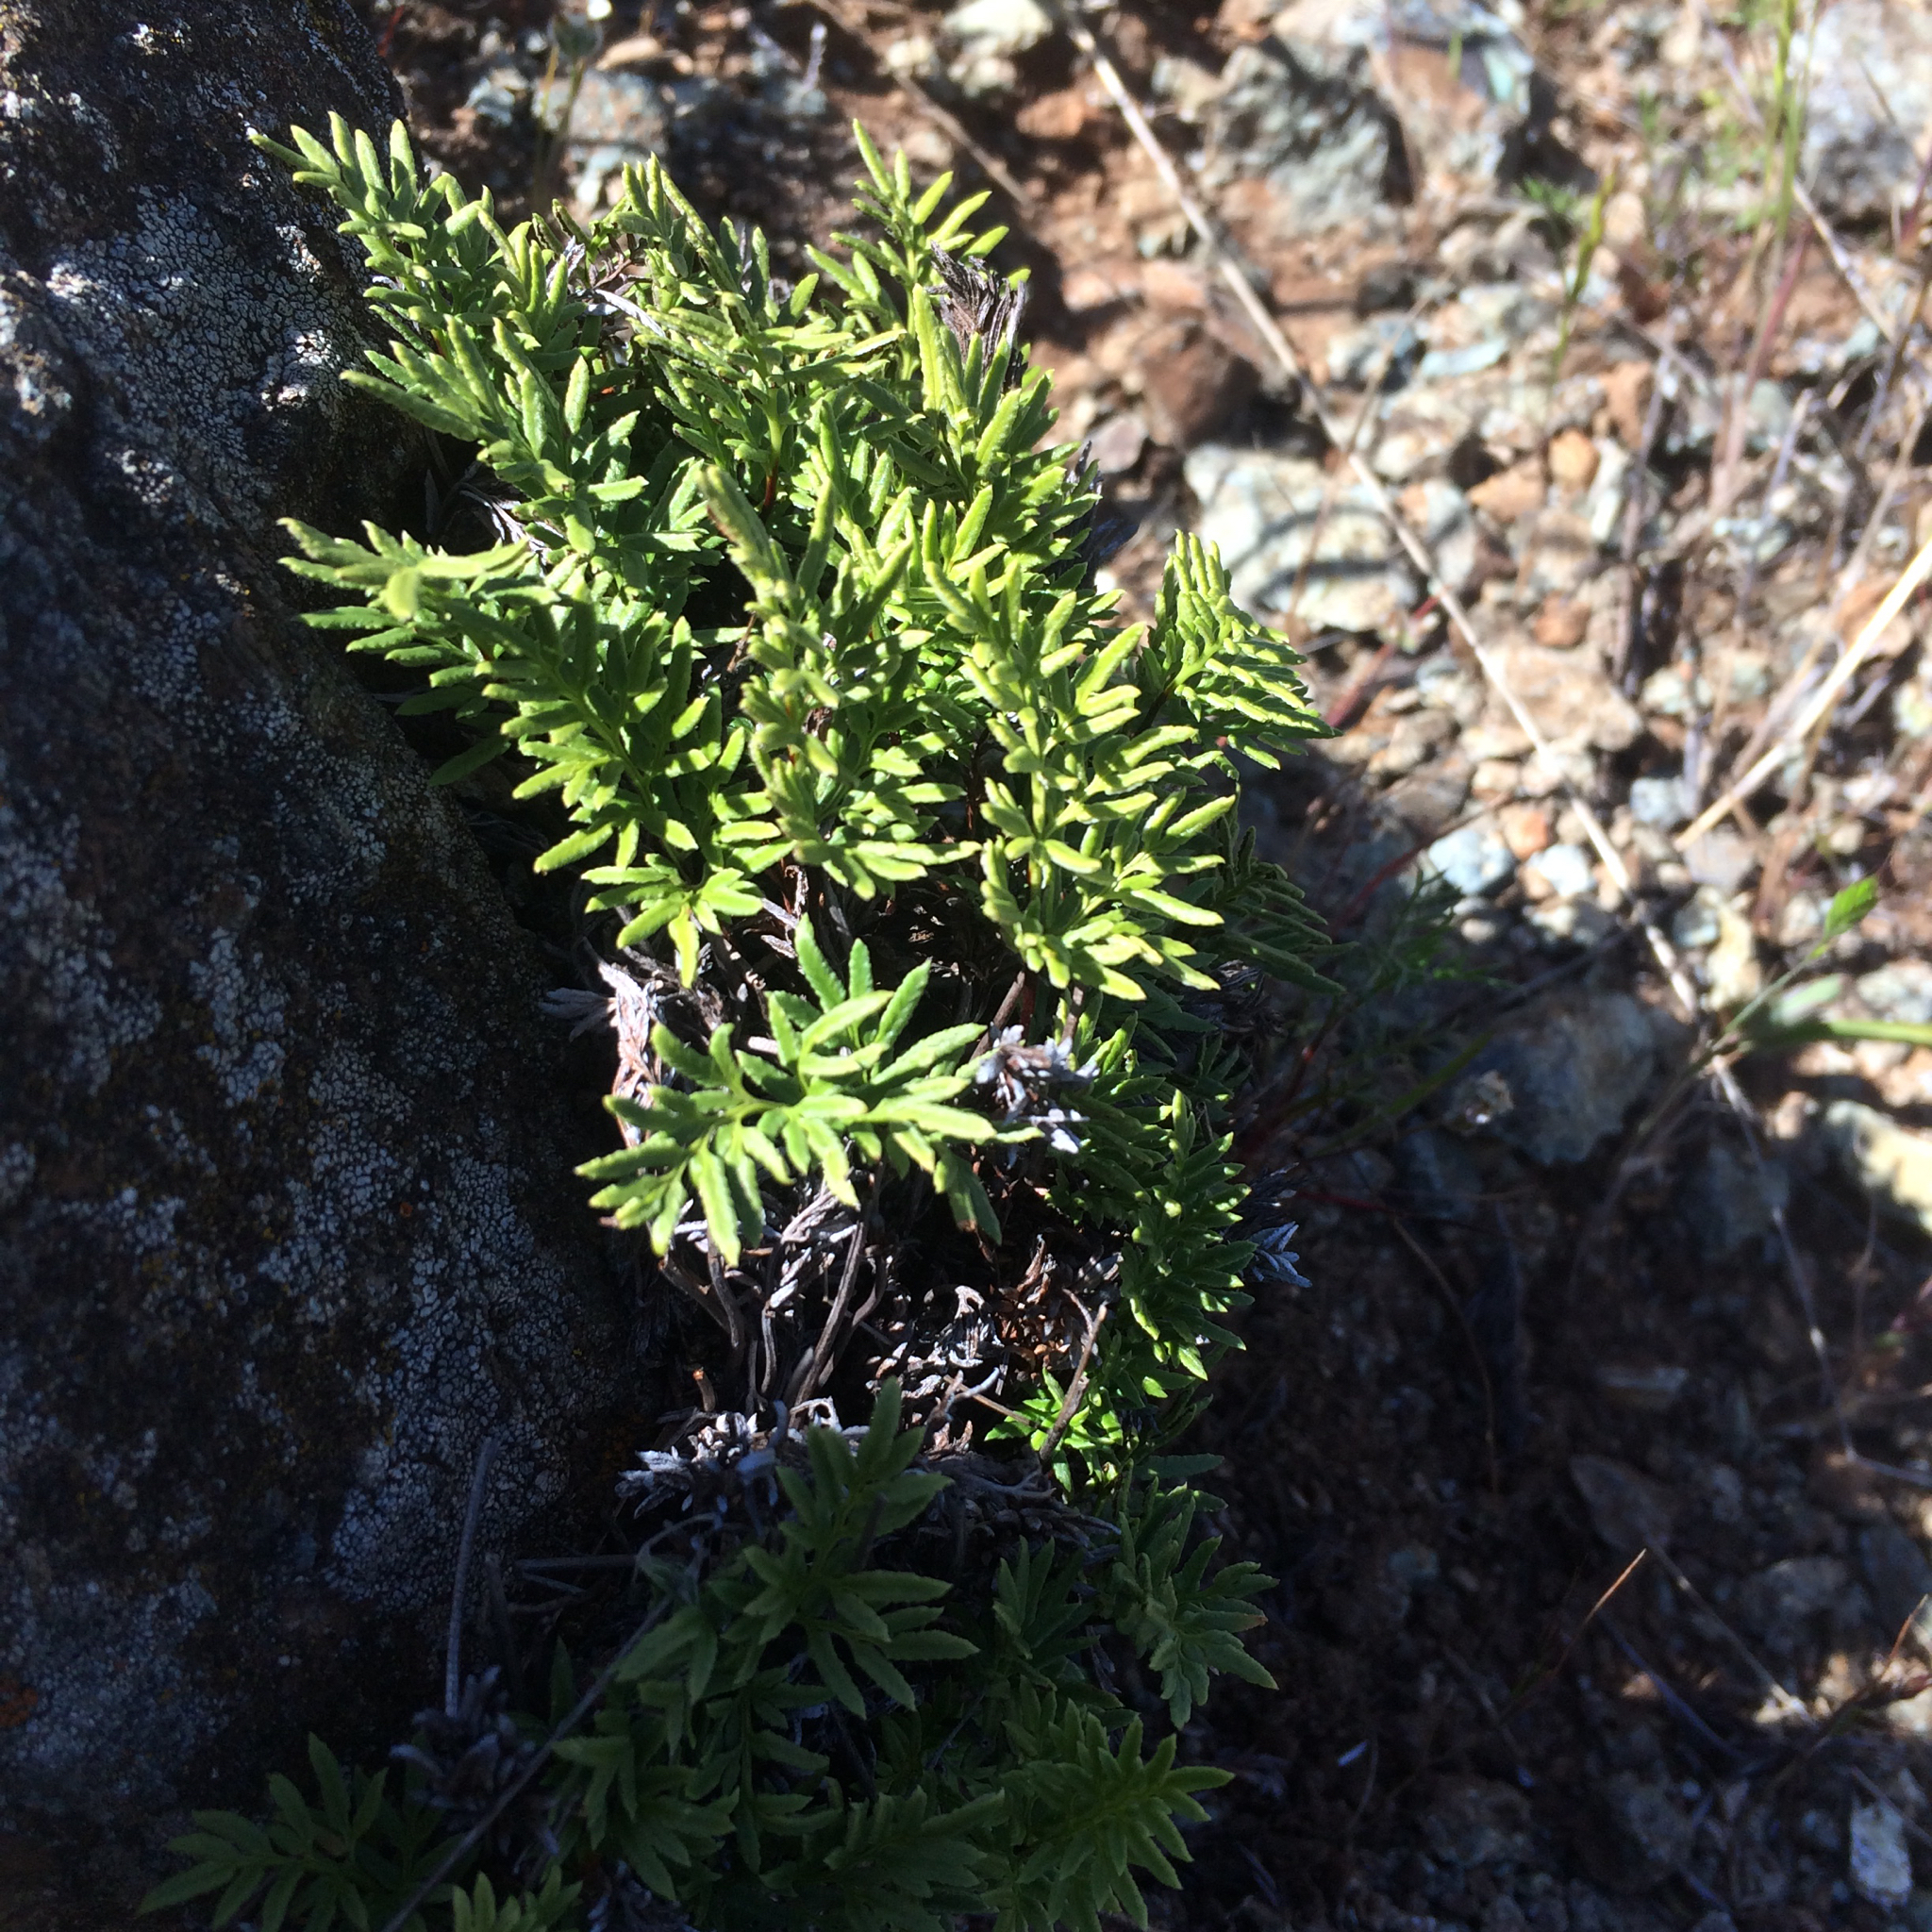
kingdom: Plantae
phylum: Tracheophyta
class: Polypodiopsida
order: Polypodiales
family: Pteridaceae
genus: Aspidotis
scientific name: Aspidotis densa
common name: Indian's dream
